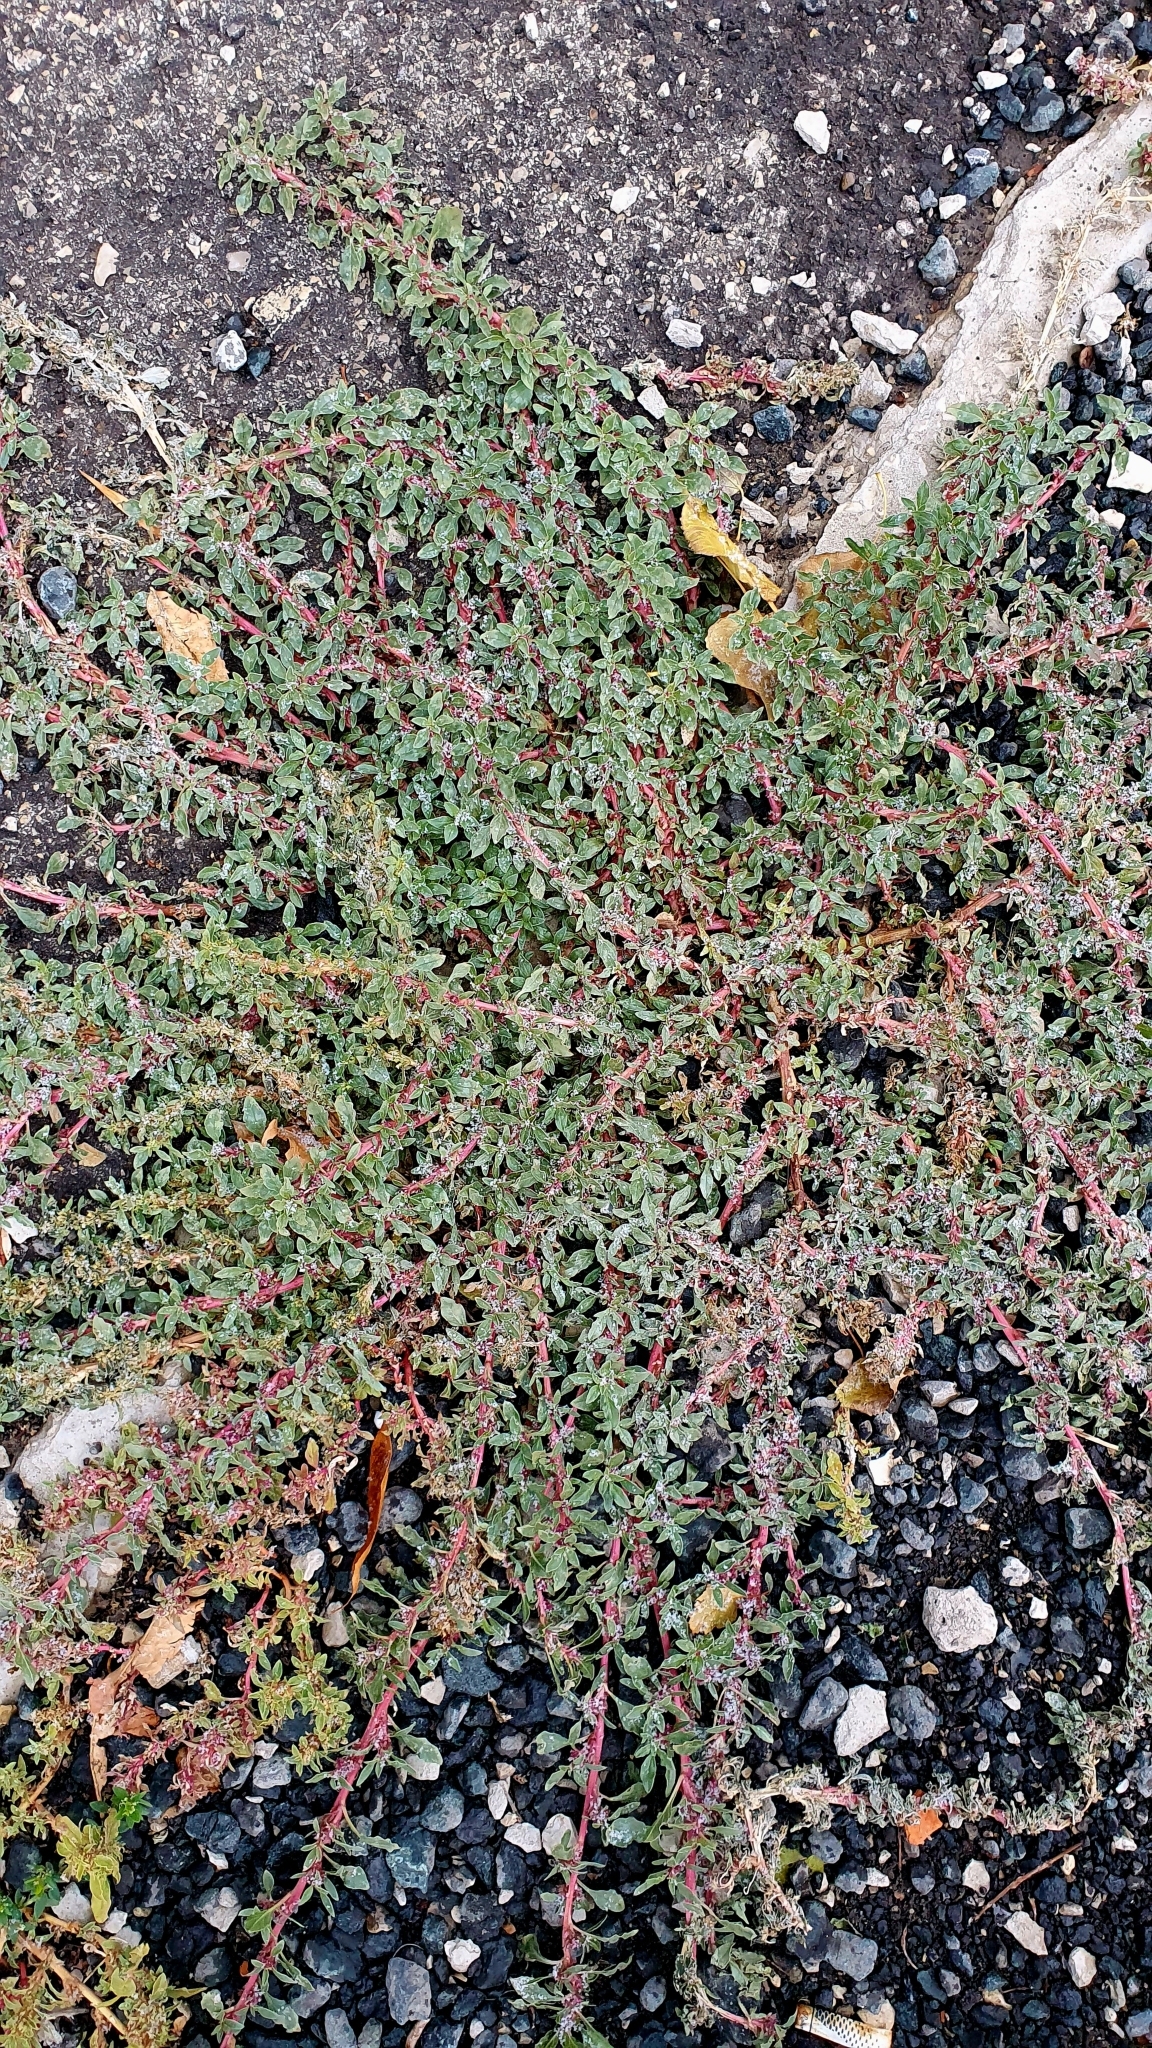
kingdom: Plantae
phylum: Tracheophyta
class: Magnoliopsida
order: Caryophyllales
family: Amaranthaceae
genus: Amaranthus
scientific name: Amaranthus blitoides
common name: Prostrate pigweed
